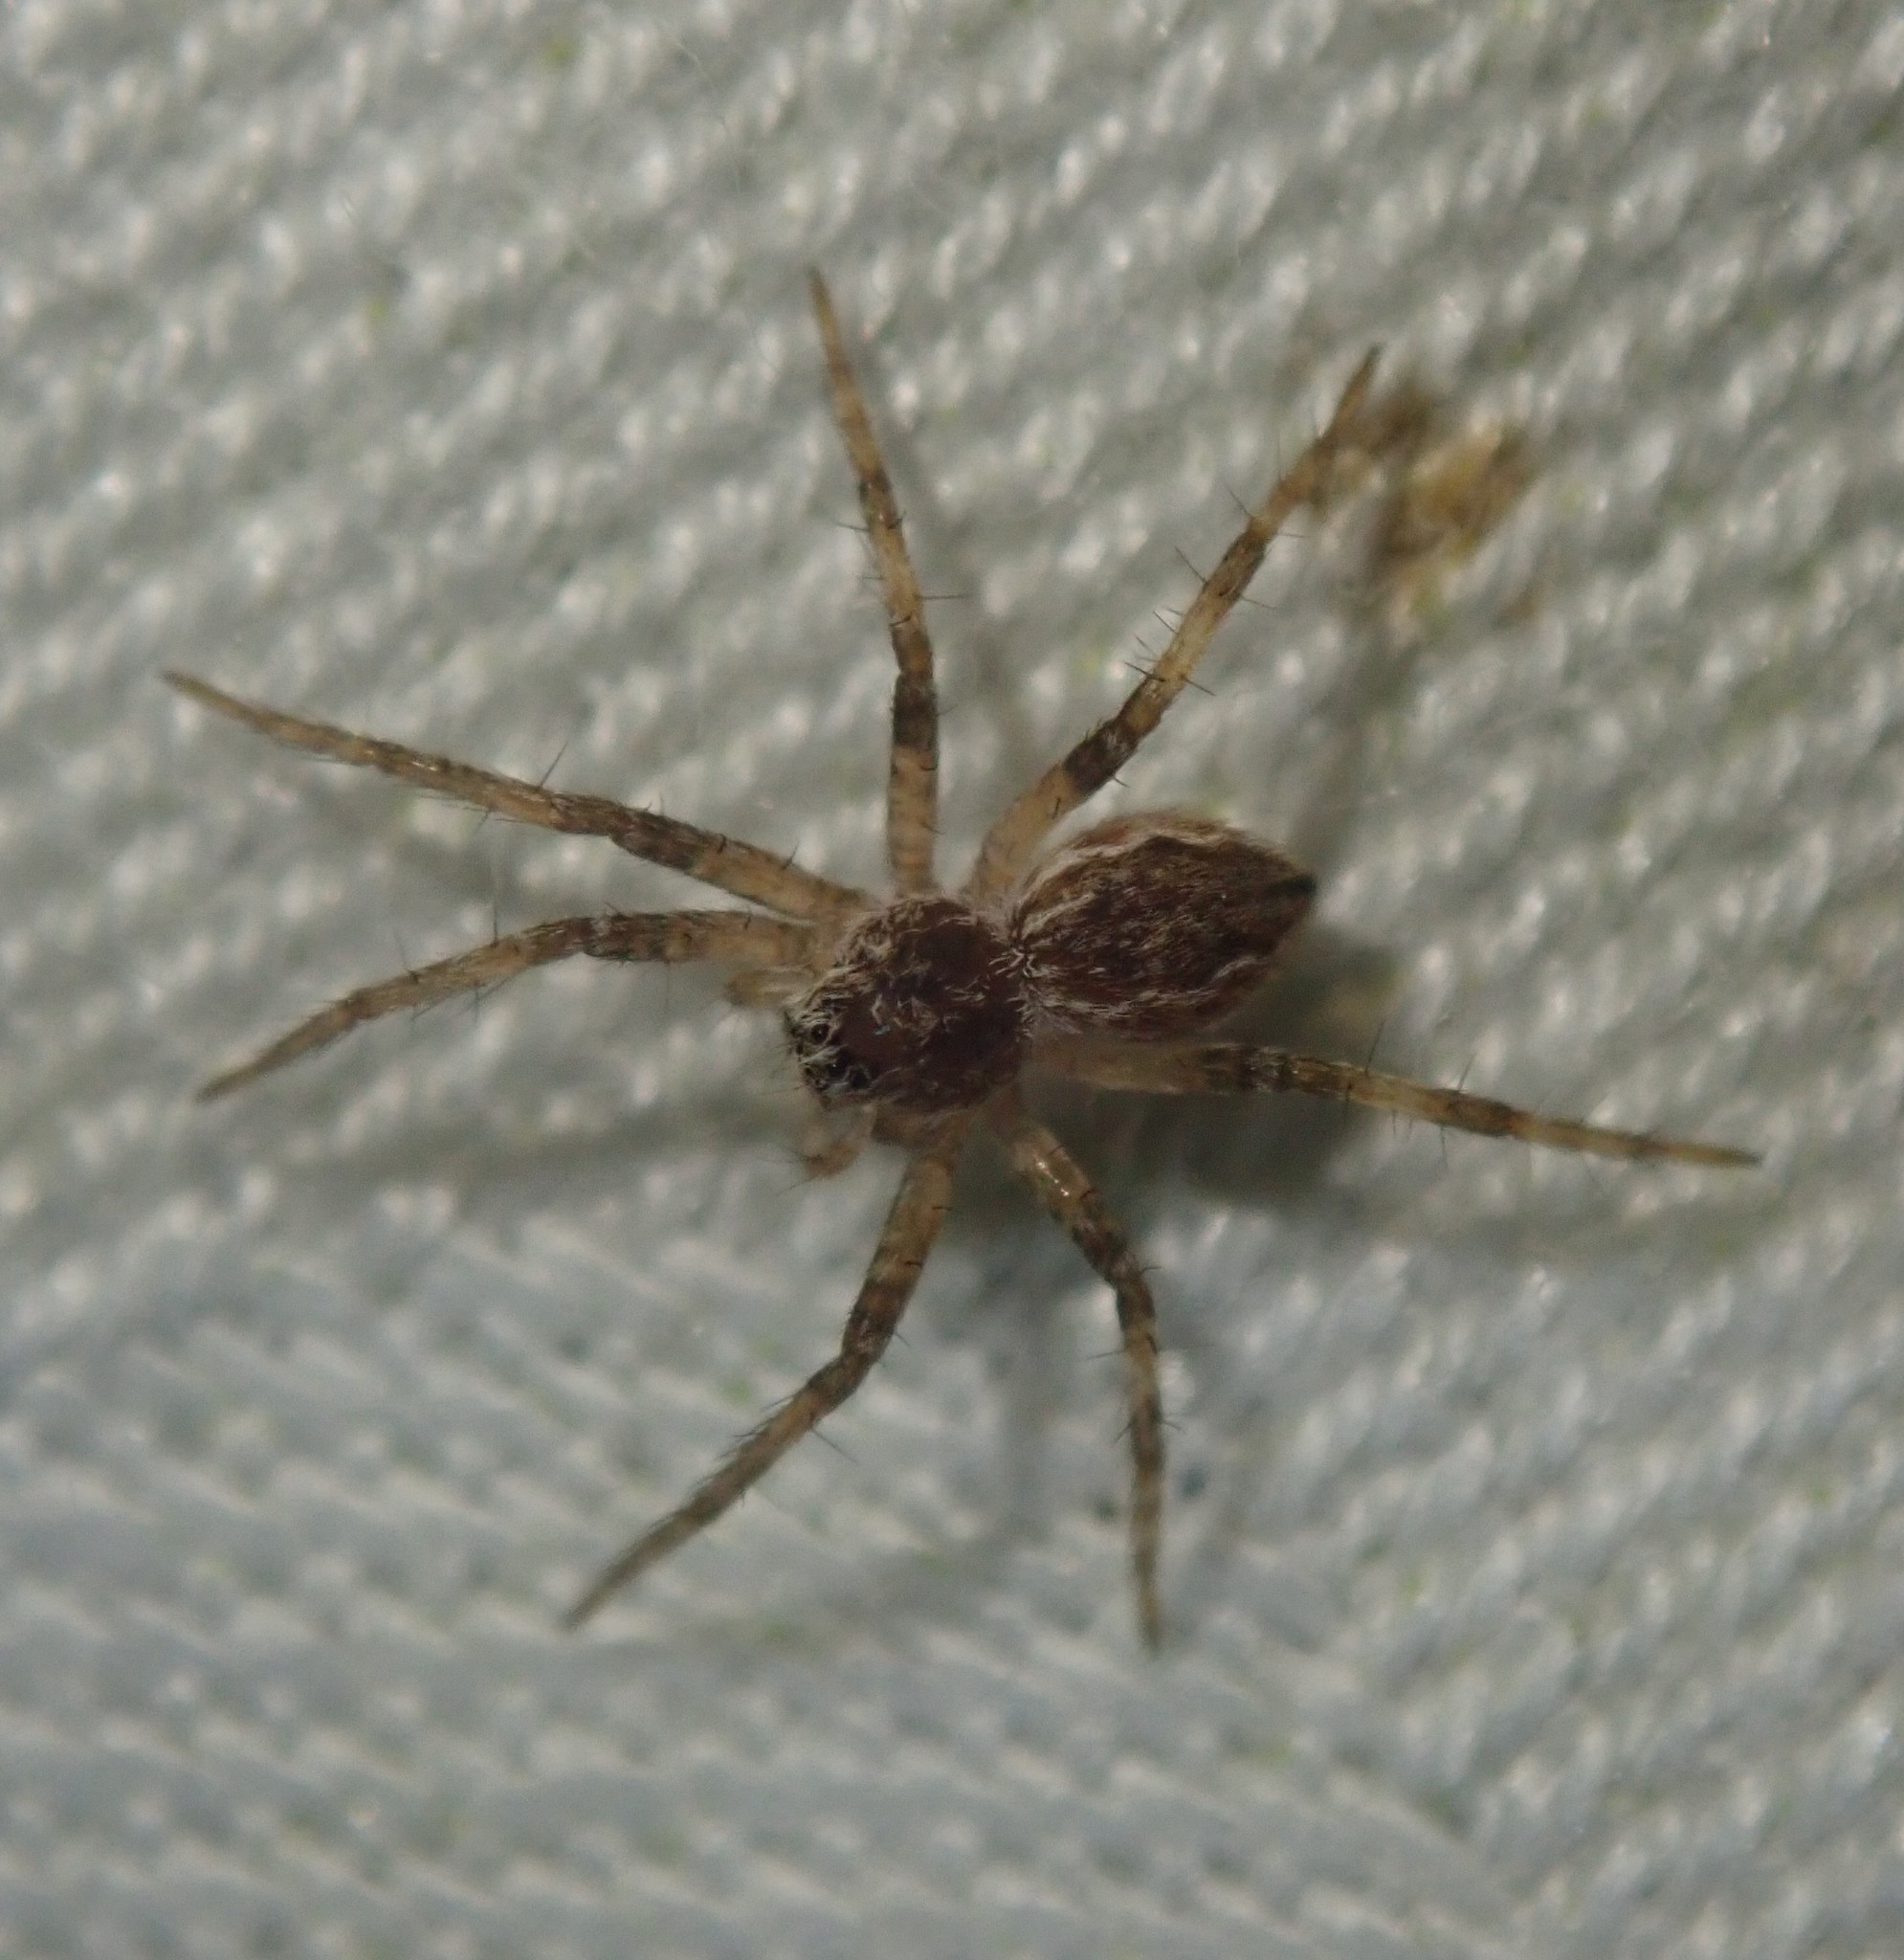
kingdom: Animalia
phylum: Arthropoda
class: Arachnida
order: Araneae
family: Pisauridae
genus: Pisaura
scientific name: Pisaura mirabilis
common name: Tent spider
